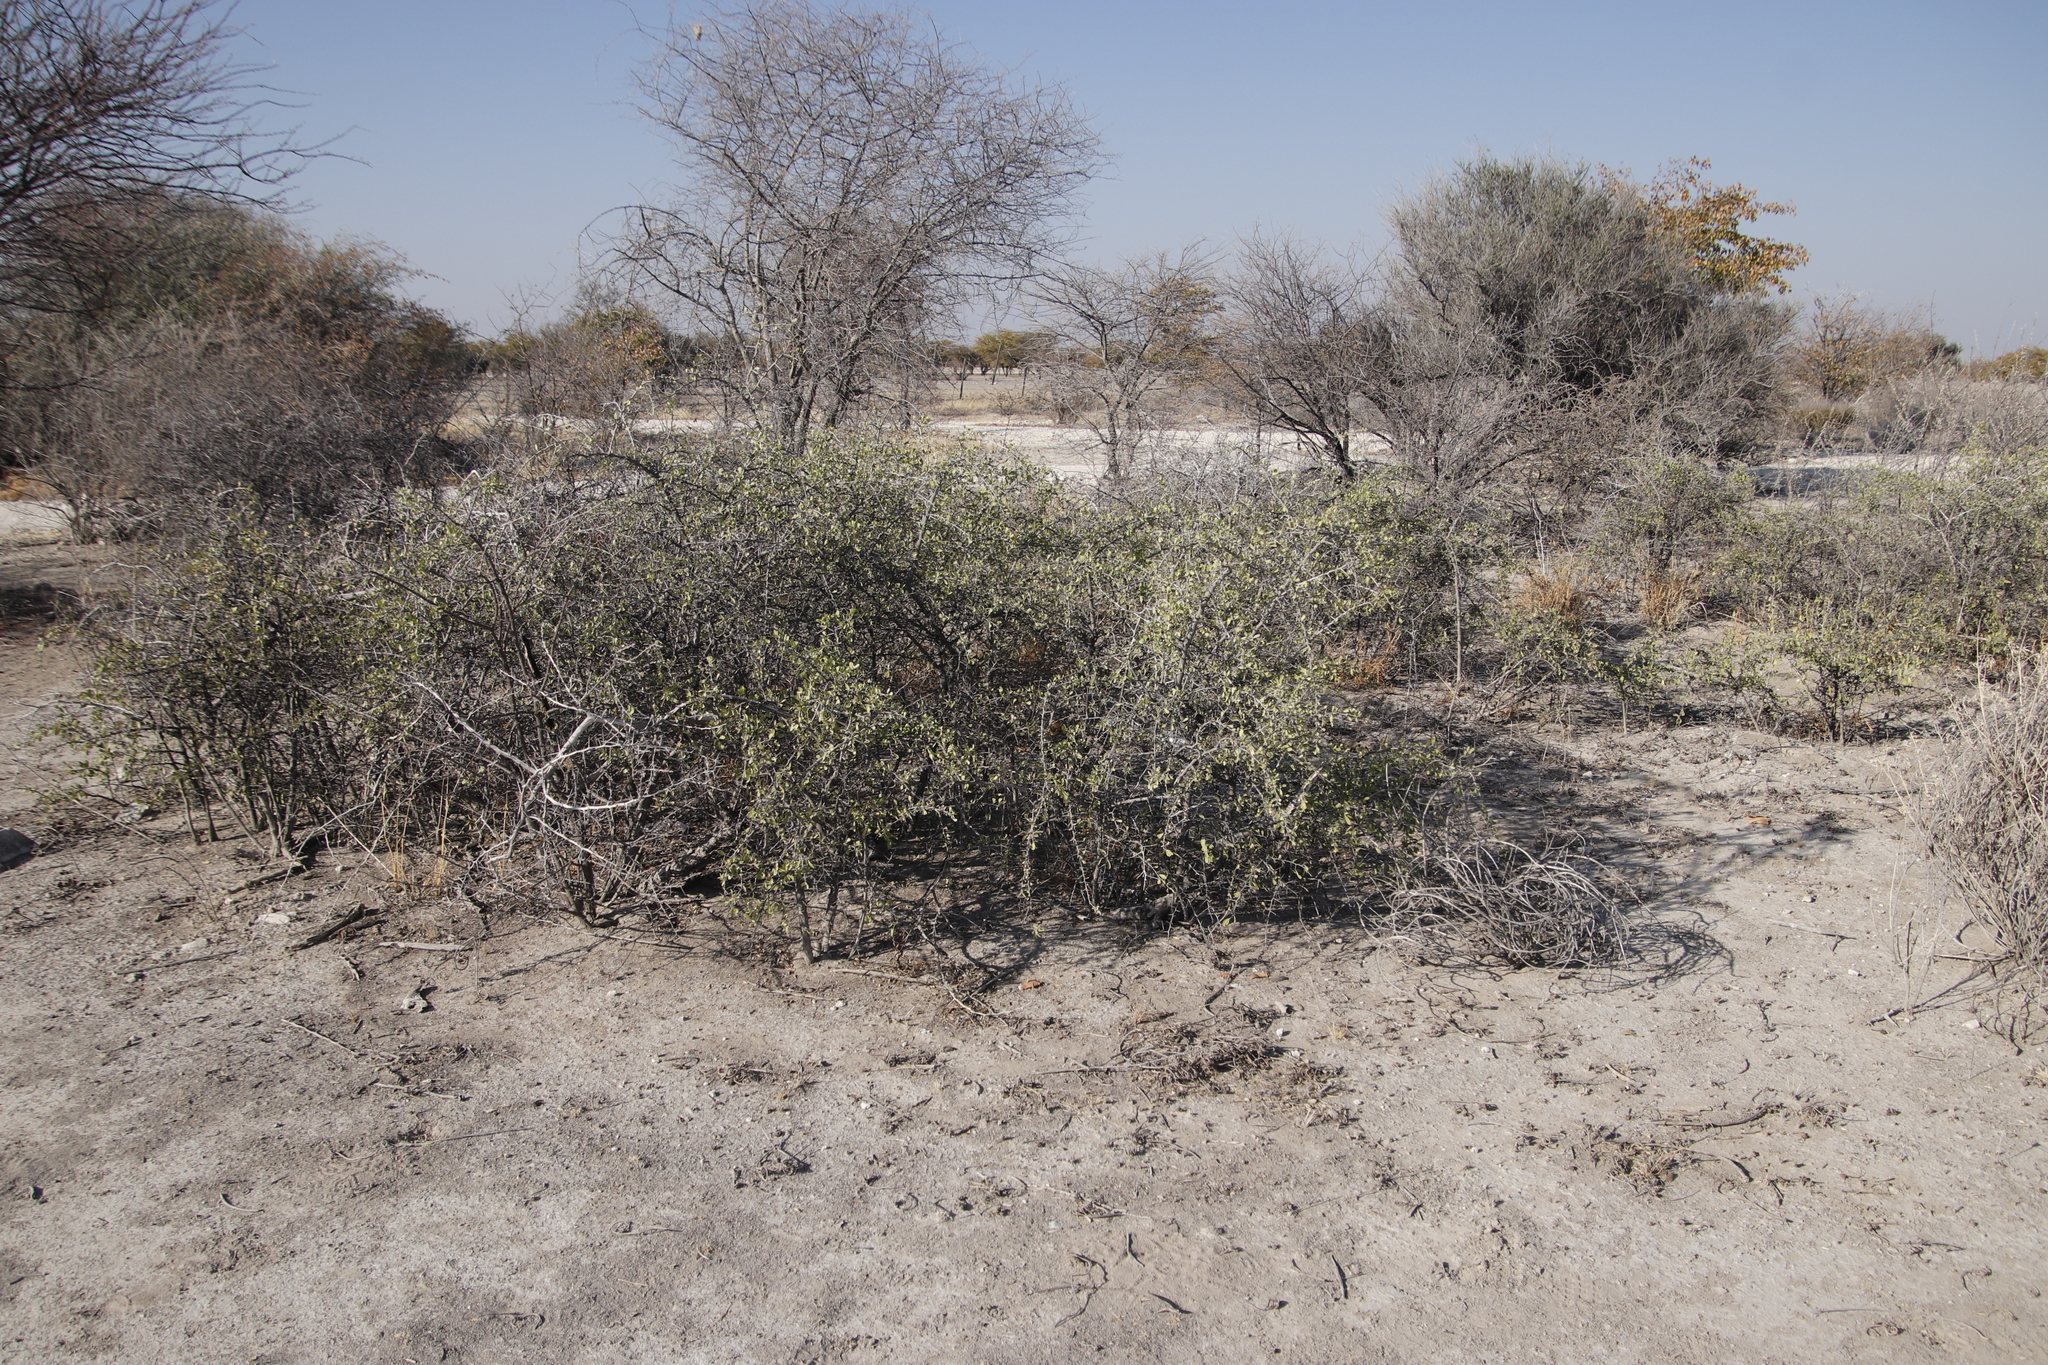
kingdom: Plantae
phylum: Tracheophyta
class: Magnoliopsida
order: Celastrales
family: Celastraceae
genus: Gymnosporia
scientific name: Gymnosporia senegalensis
